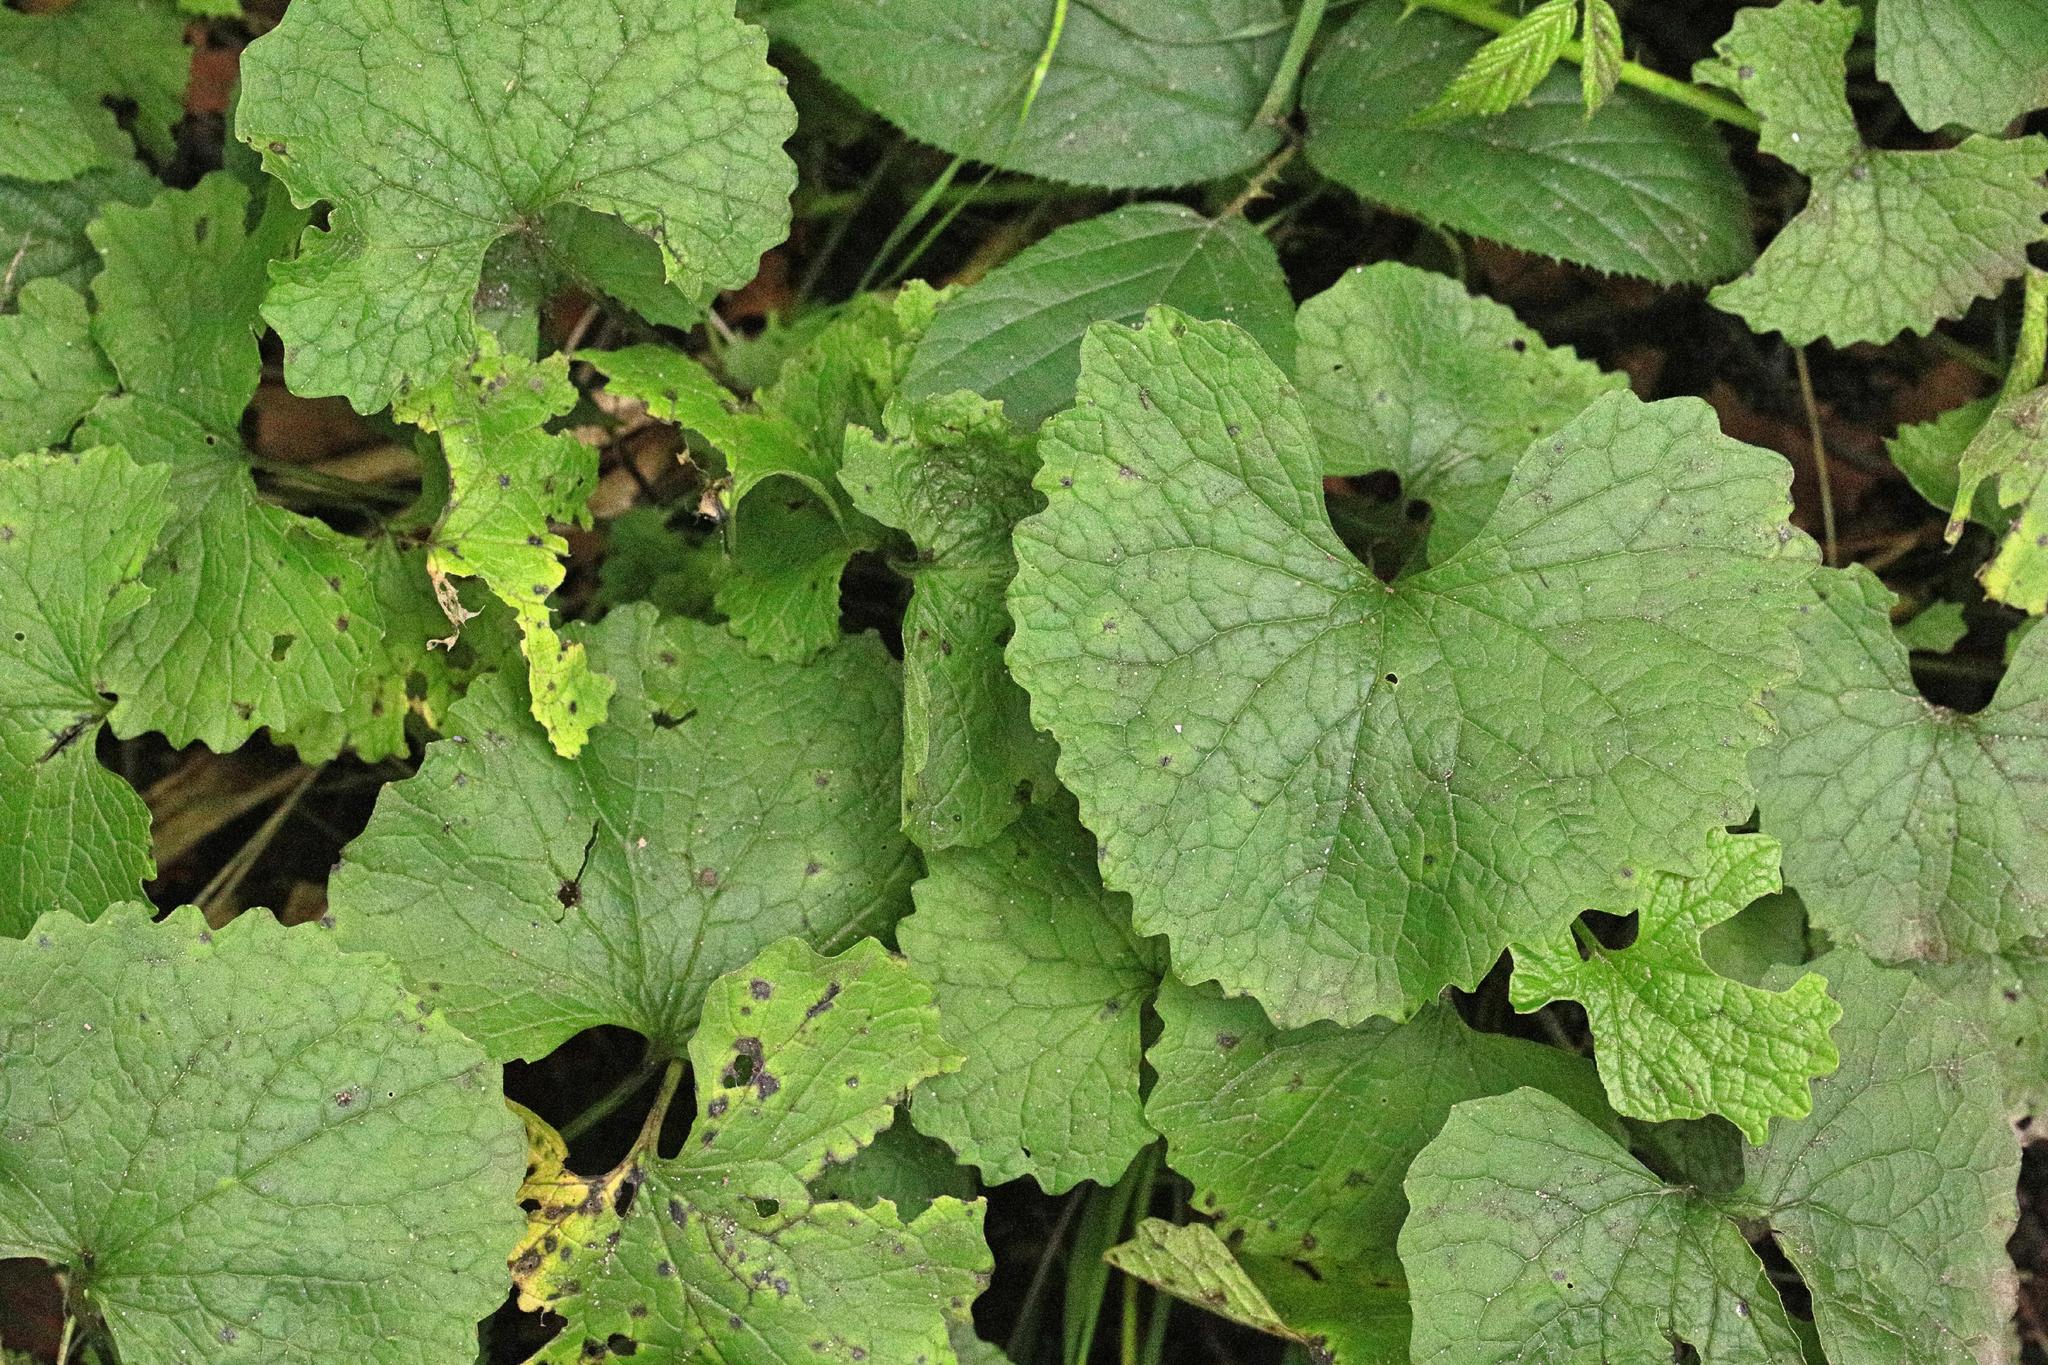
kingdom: Plantae
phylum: Tracheophyta
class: Magnoliopsida
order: Brassicales
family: Brassicaceae
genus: Alliaria
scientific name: Alliaria petiolata
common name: Garlic mustard
